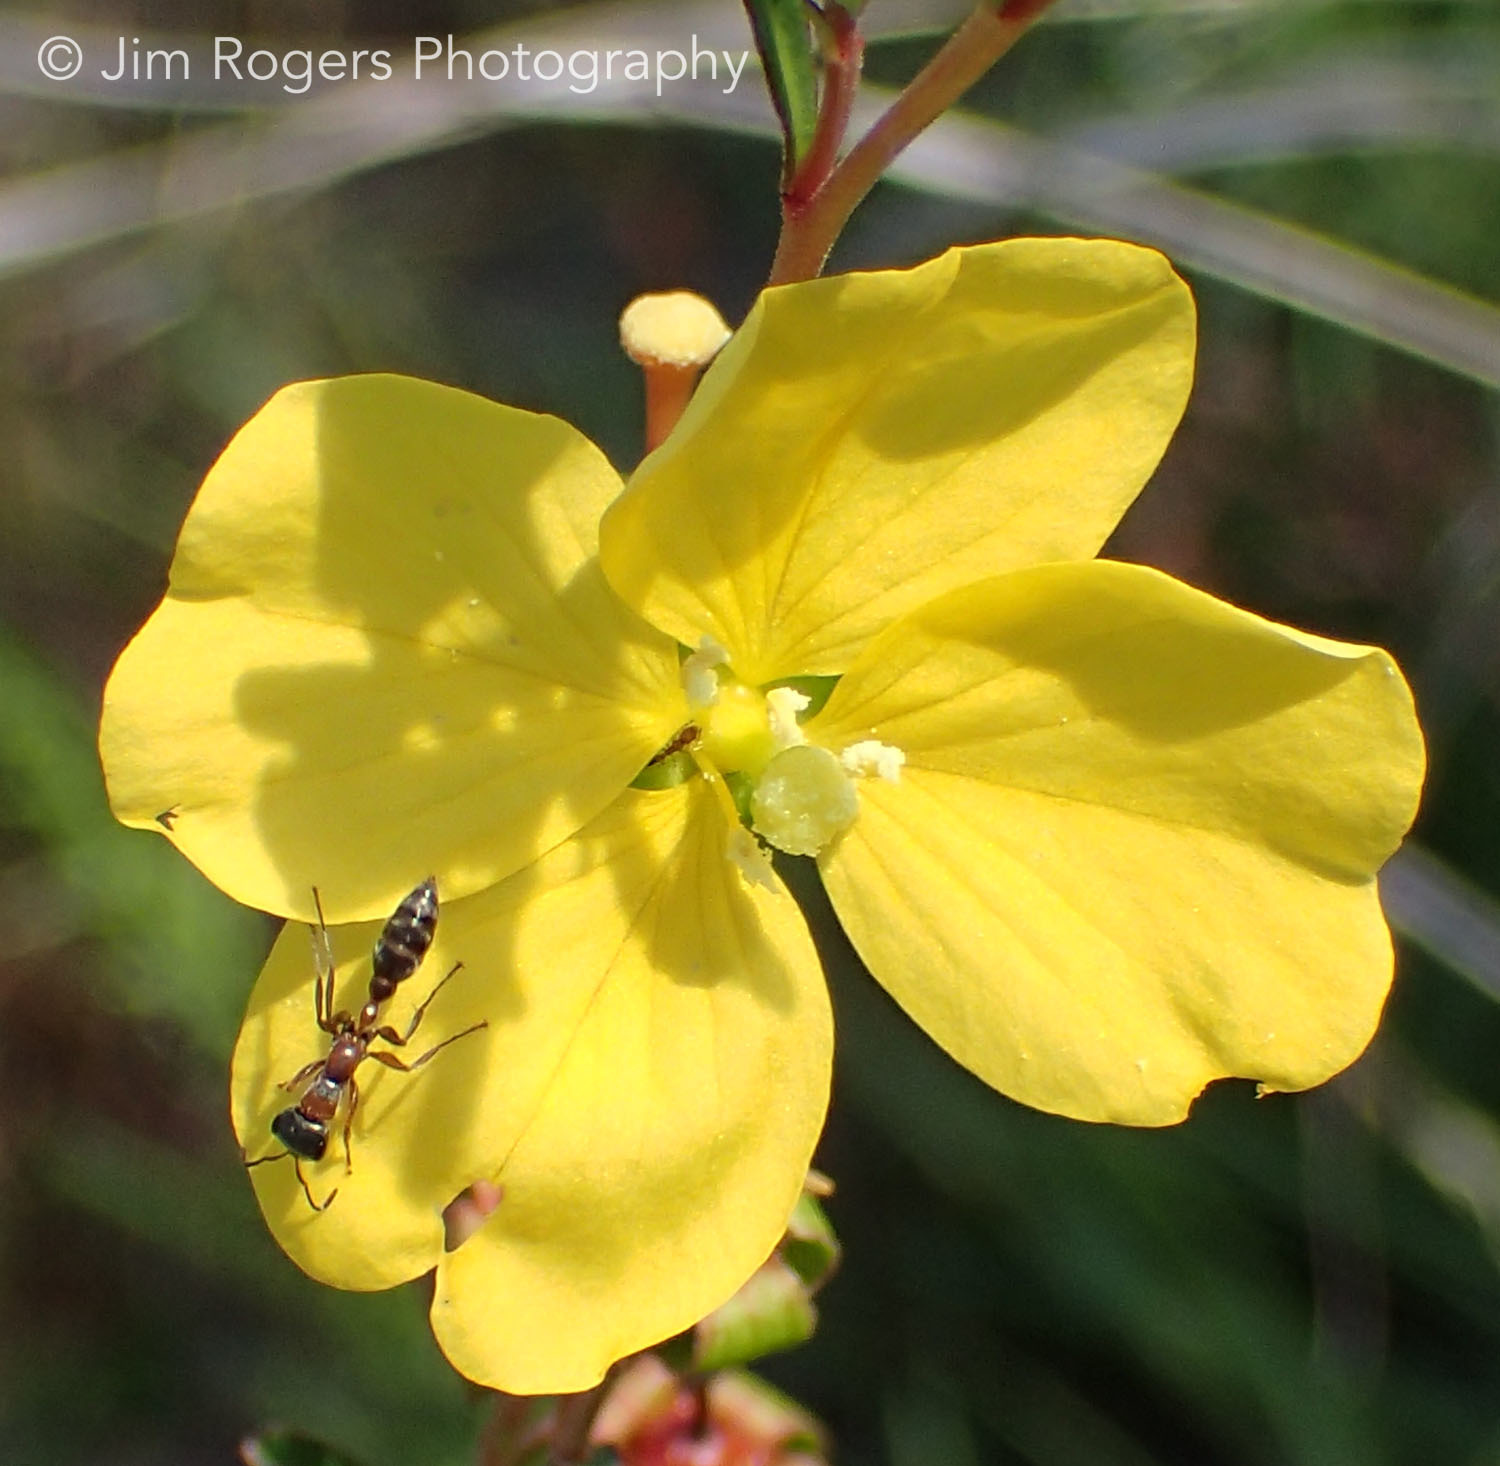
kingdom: Animalia
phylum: Arthropoda
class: Insecta
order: Hymenoptera
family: Formicidae
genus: Pseudomyrmex
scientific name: Pseudomyrmex gracilis
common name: Graceful twig ant
